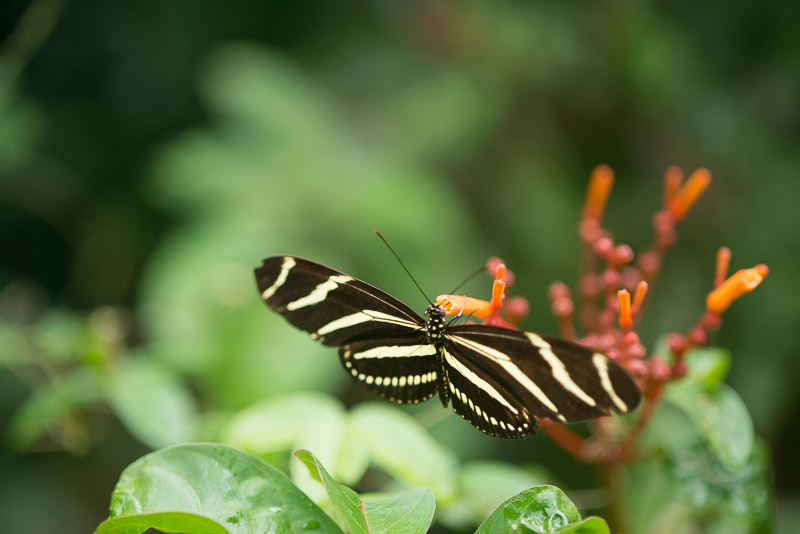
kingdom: Animalia
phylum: Arthropoda
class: Insecta
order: Lepidoptera
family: Nymphalidae
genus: Heliconius
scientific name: Heliconius charithonia
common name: Zebra long wing
